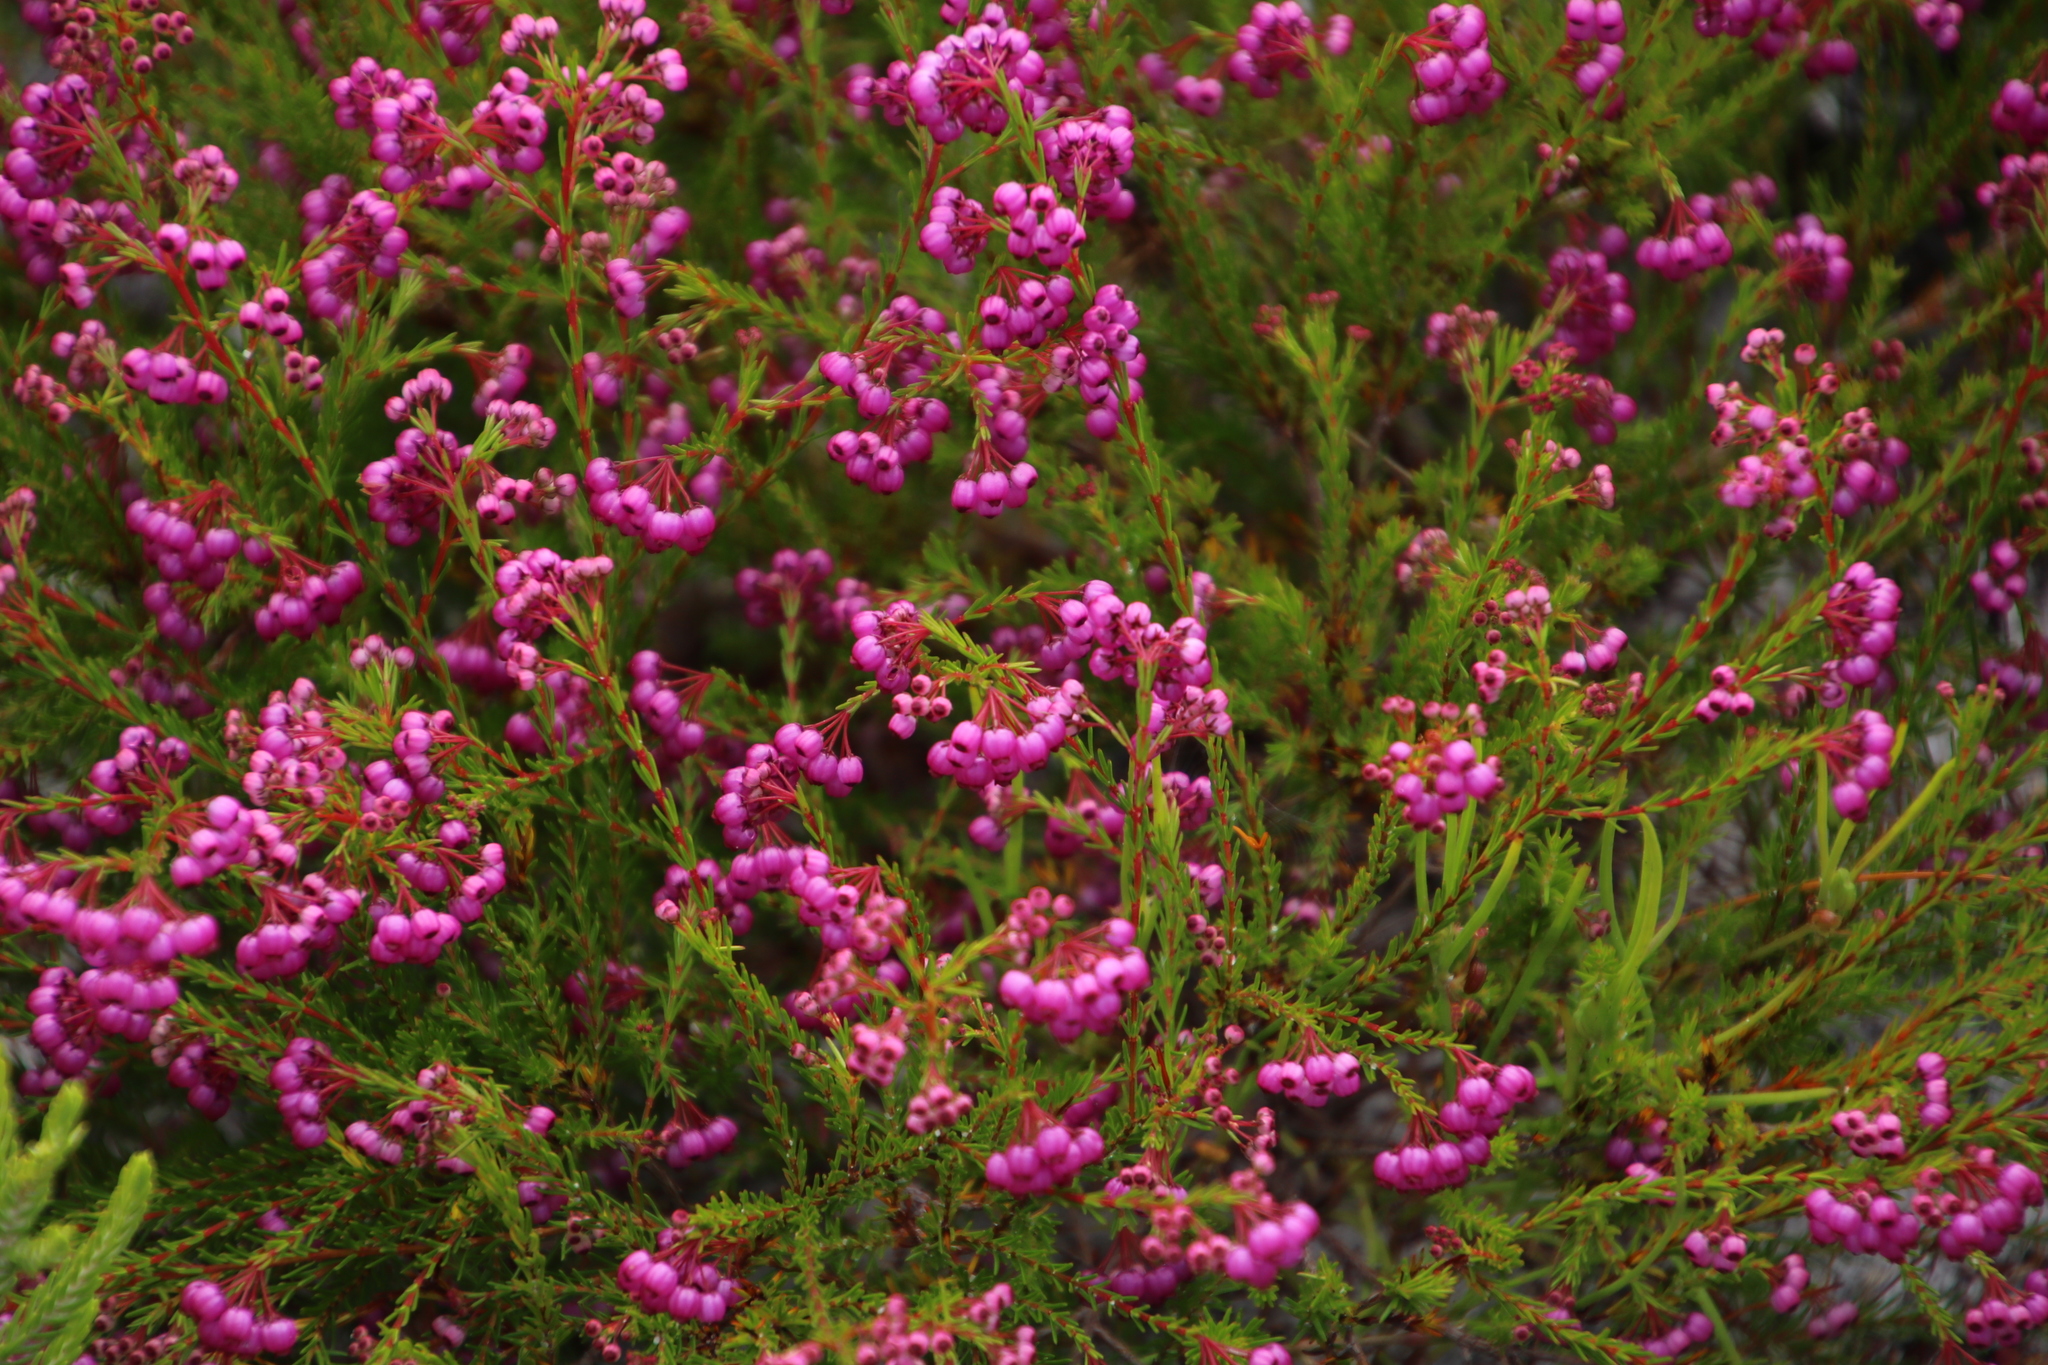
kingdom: Plantae
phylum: Tracheophyta
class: Magnoliopsida
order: Ericales
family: Ericaceae
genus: Erica
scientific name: Erica multumbellifera
